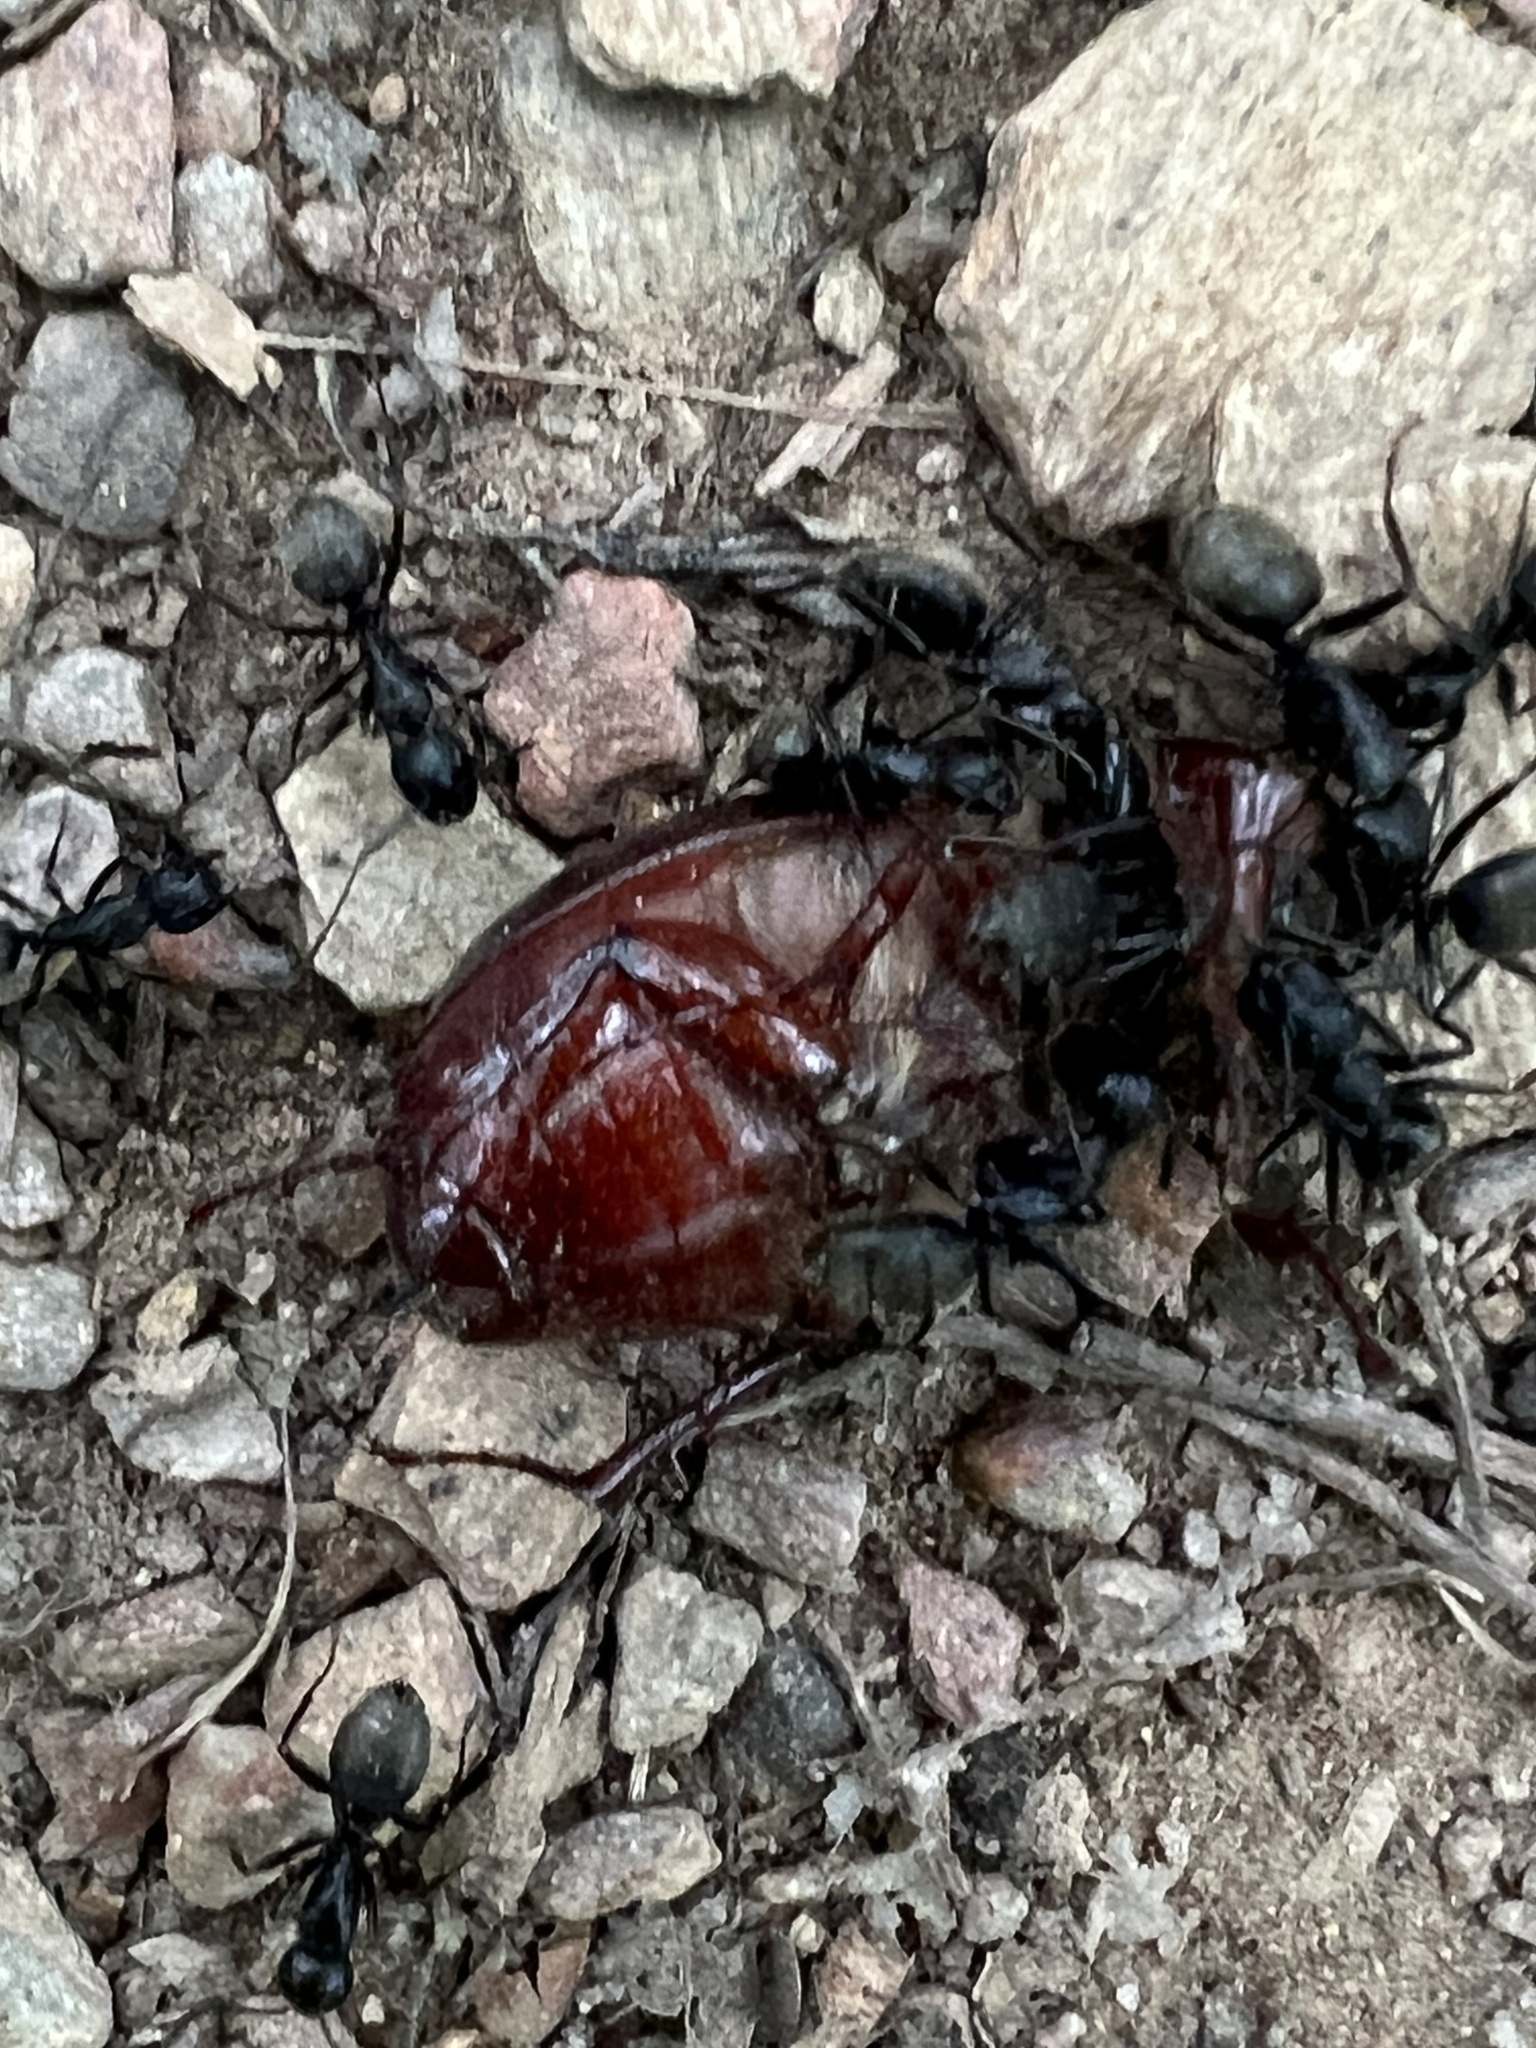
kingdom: Animalia
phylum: Arthropoda
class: Insecta
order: Hymenoptera
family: Formicidae
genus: Camponotus
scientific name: Camponotus pennsylvanicus
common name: Black carpenter ant
